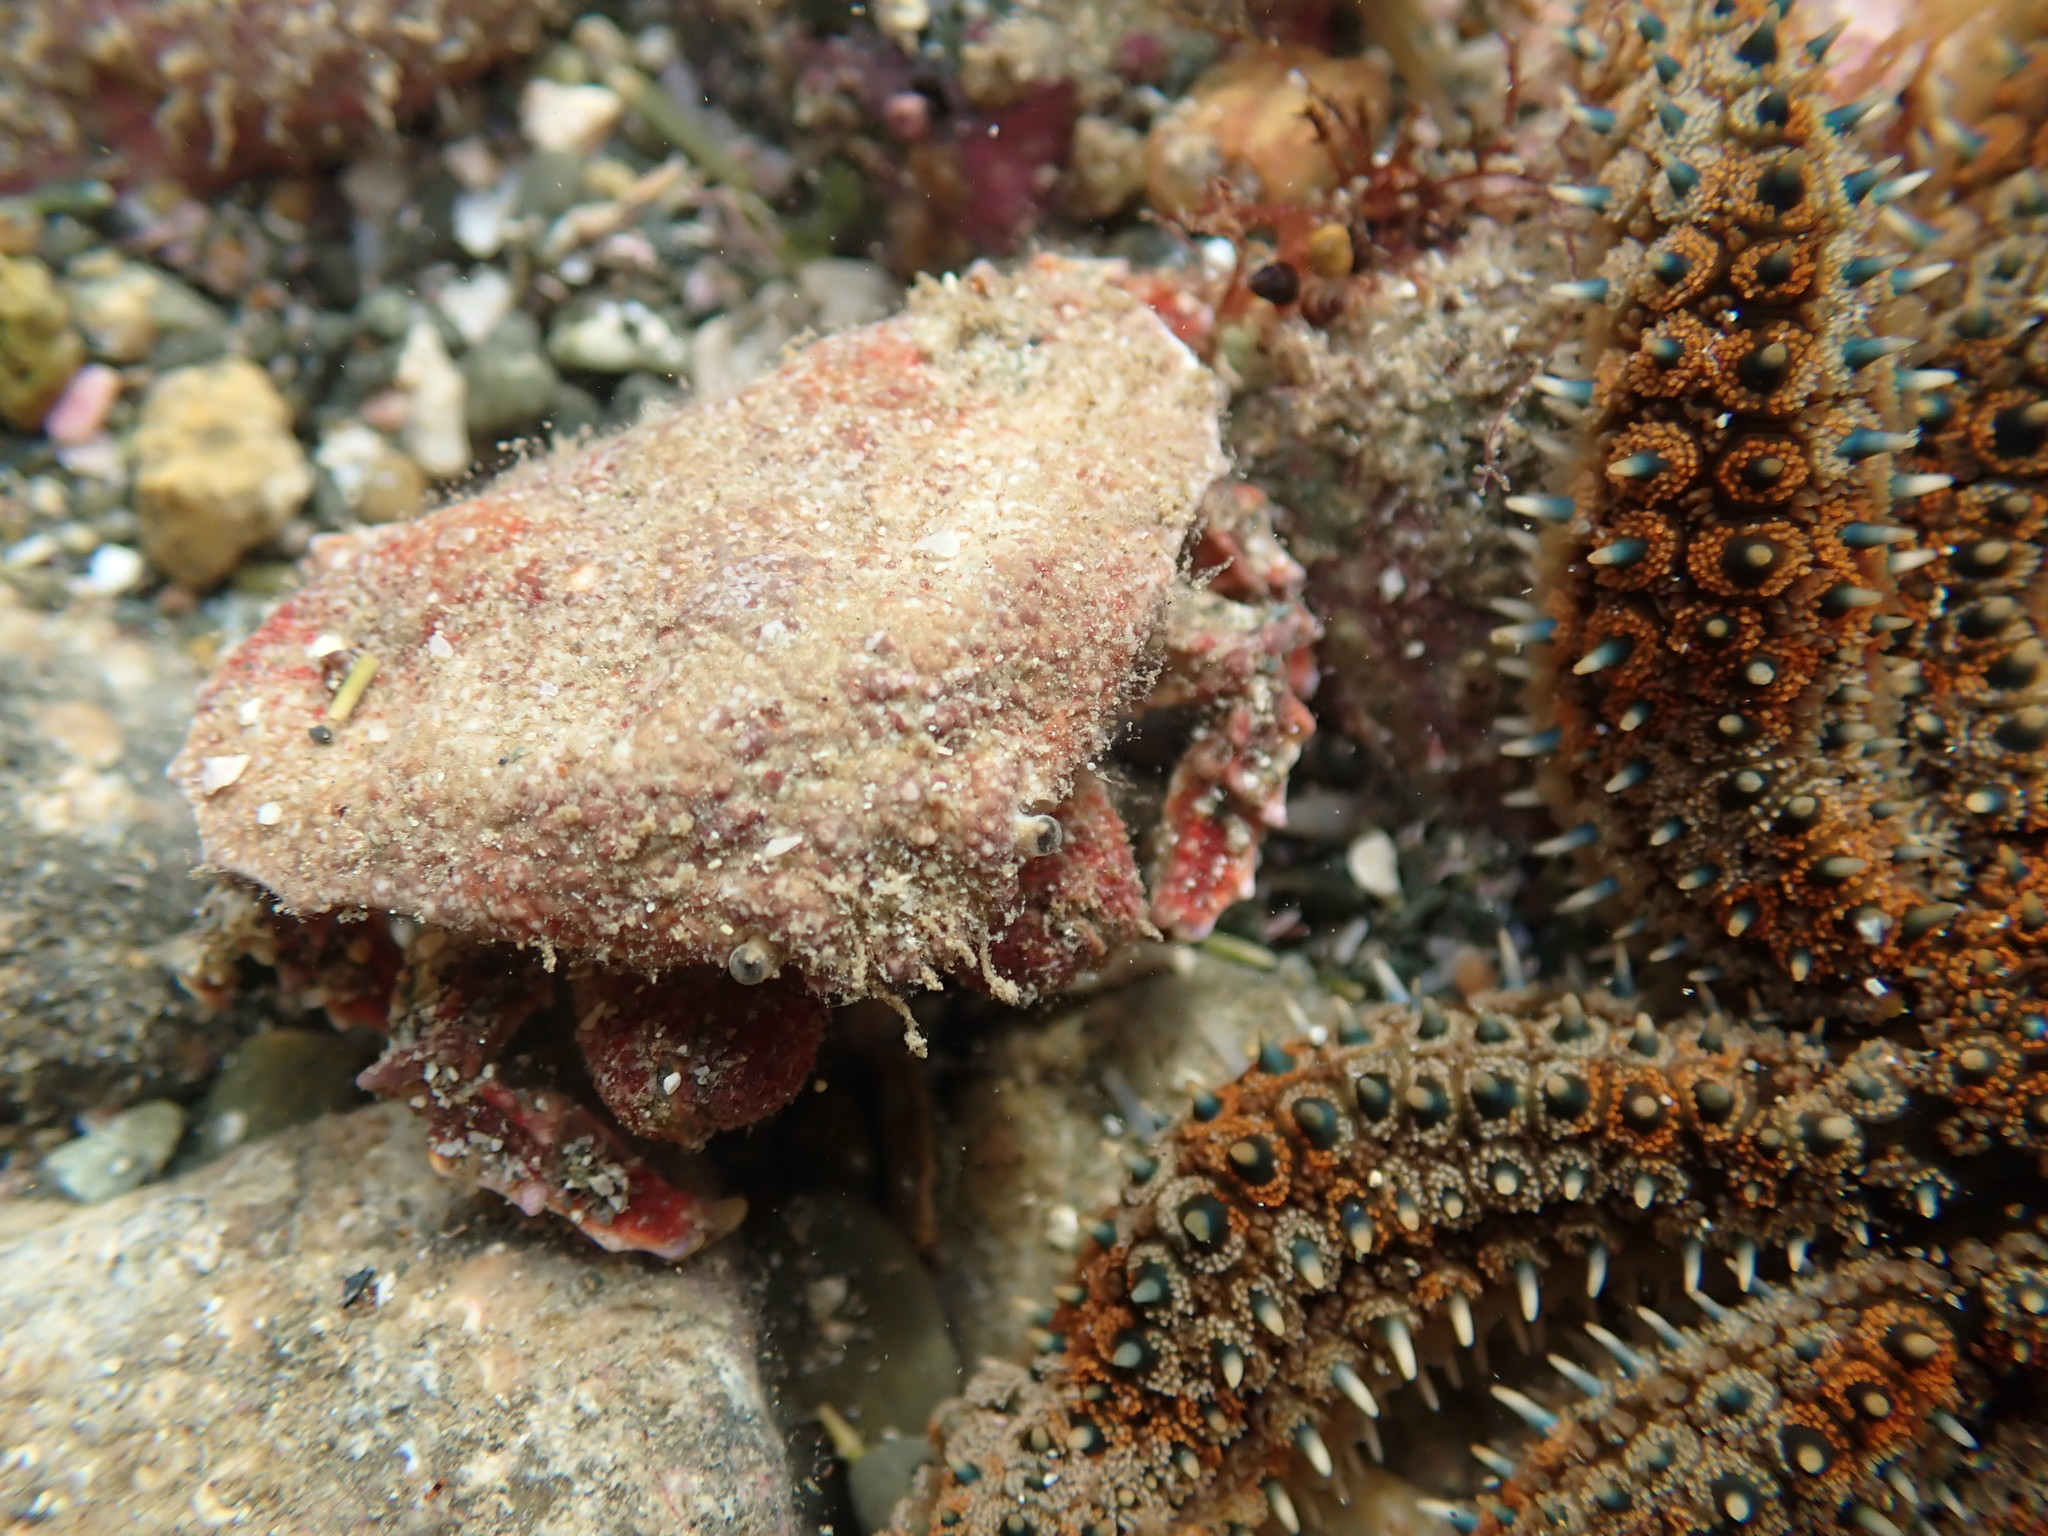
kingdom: Animalia
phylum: Arthropoda
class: Malacostraca
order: Decapoda
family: Majidae
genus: Eurynolambrus
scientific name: Eurynolambrus australis
